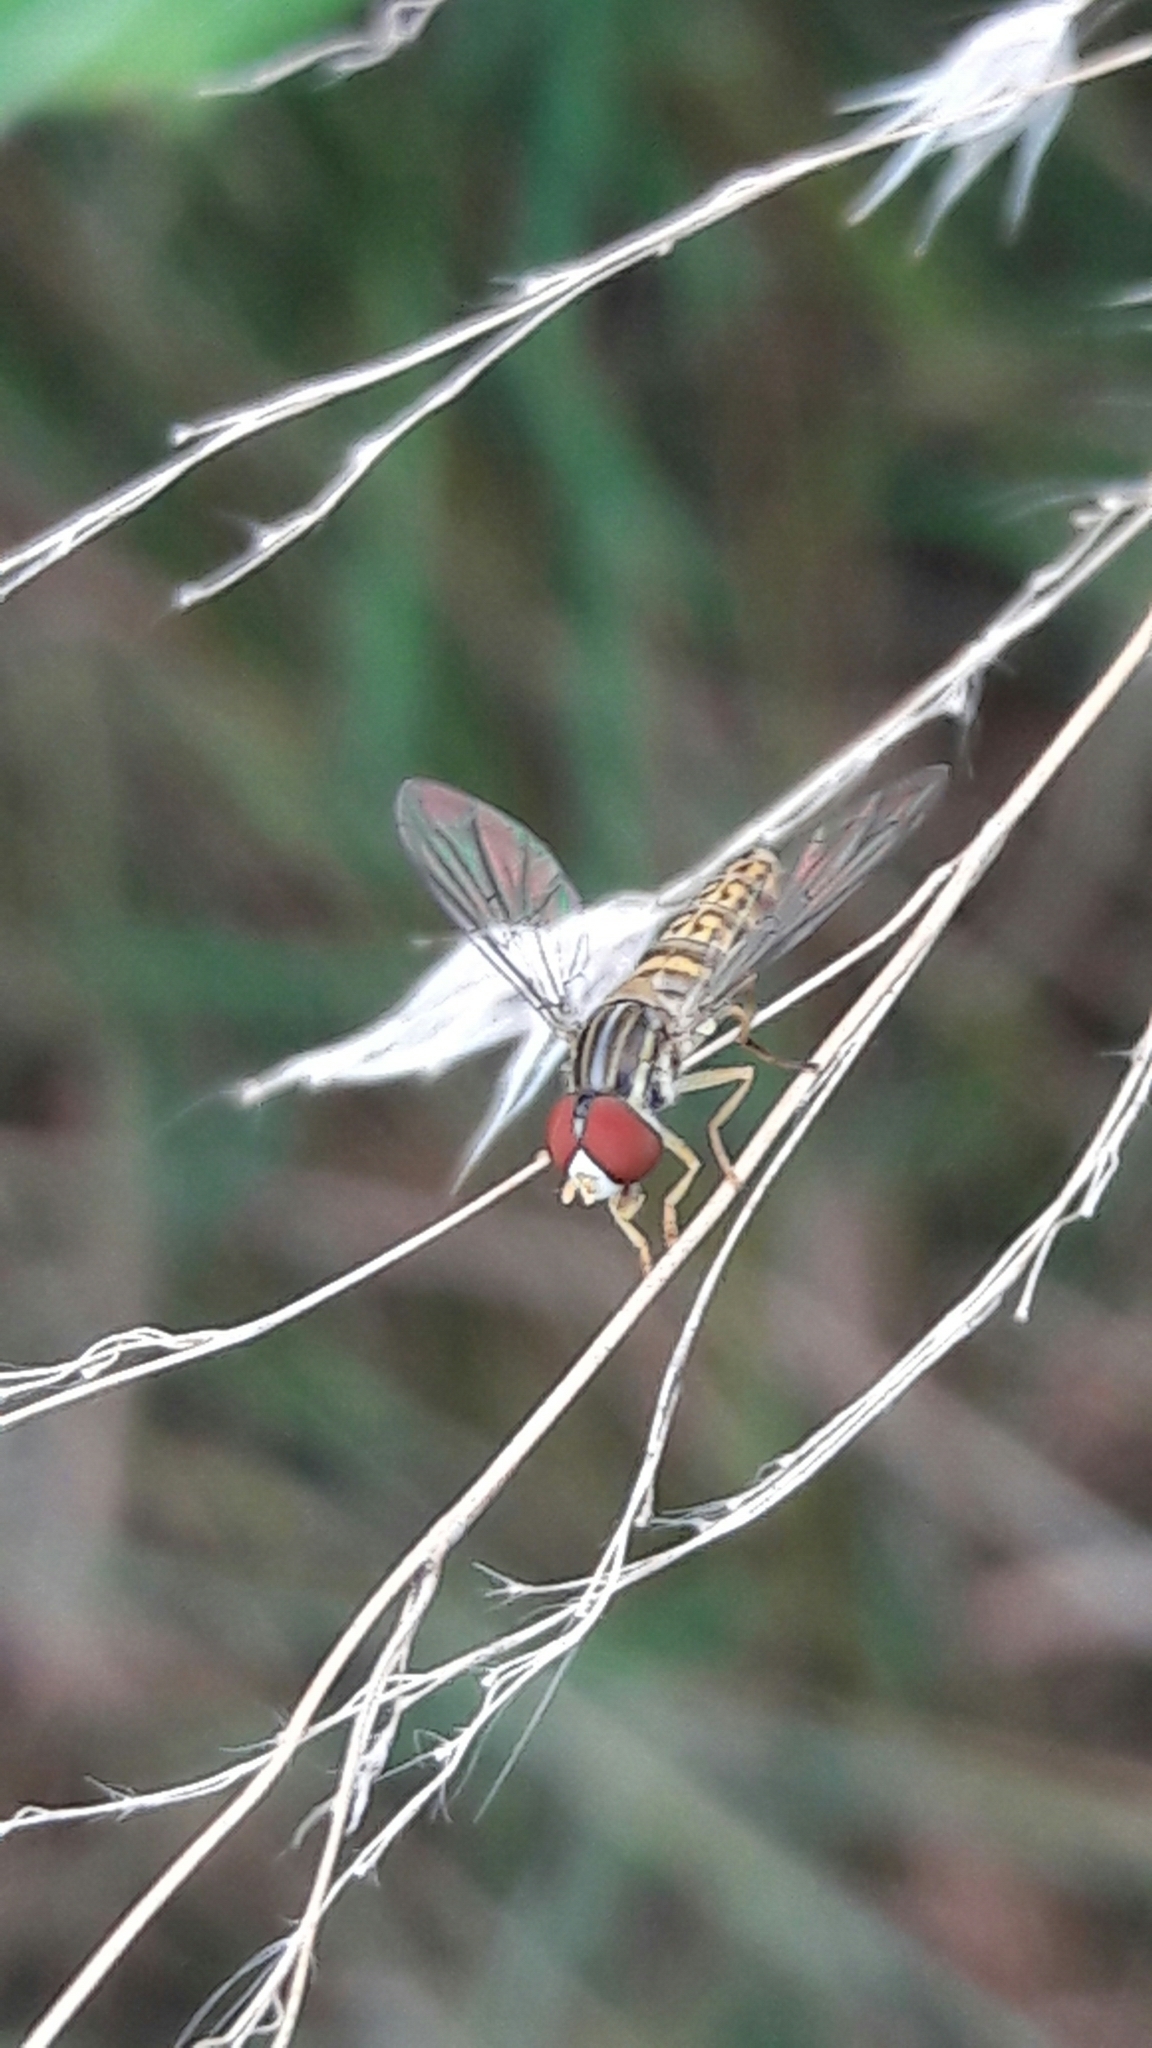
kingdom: Animalia
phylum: Arthropoda
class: Insecta
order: Diptera
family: Syrphidae
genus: Toxomerus
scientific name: Toxomerus
